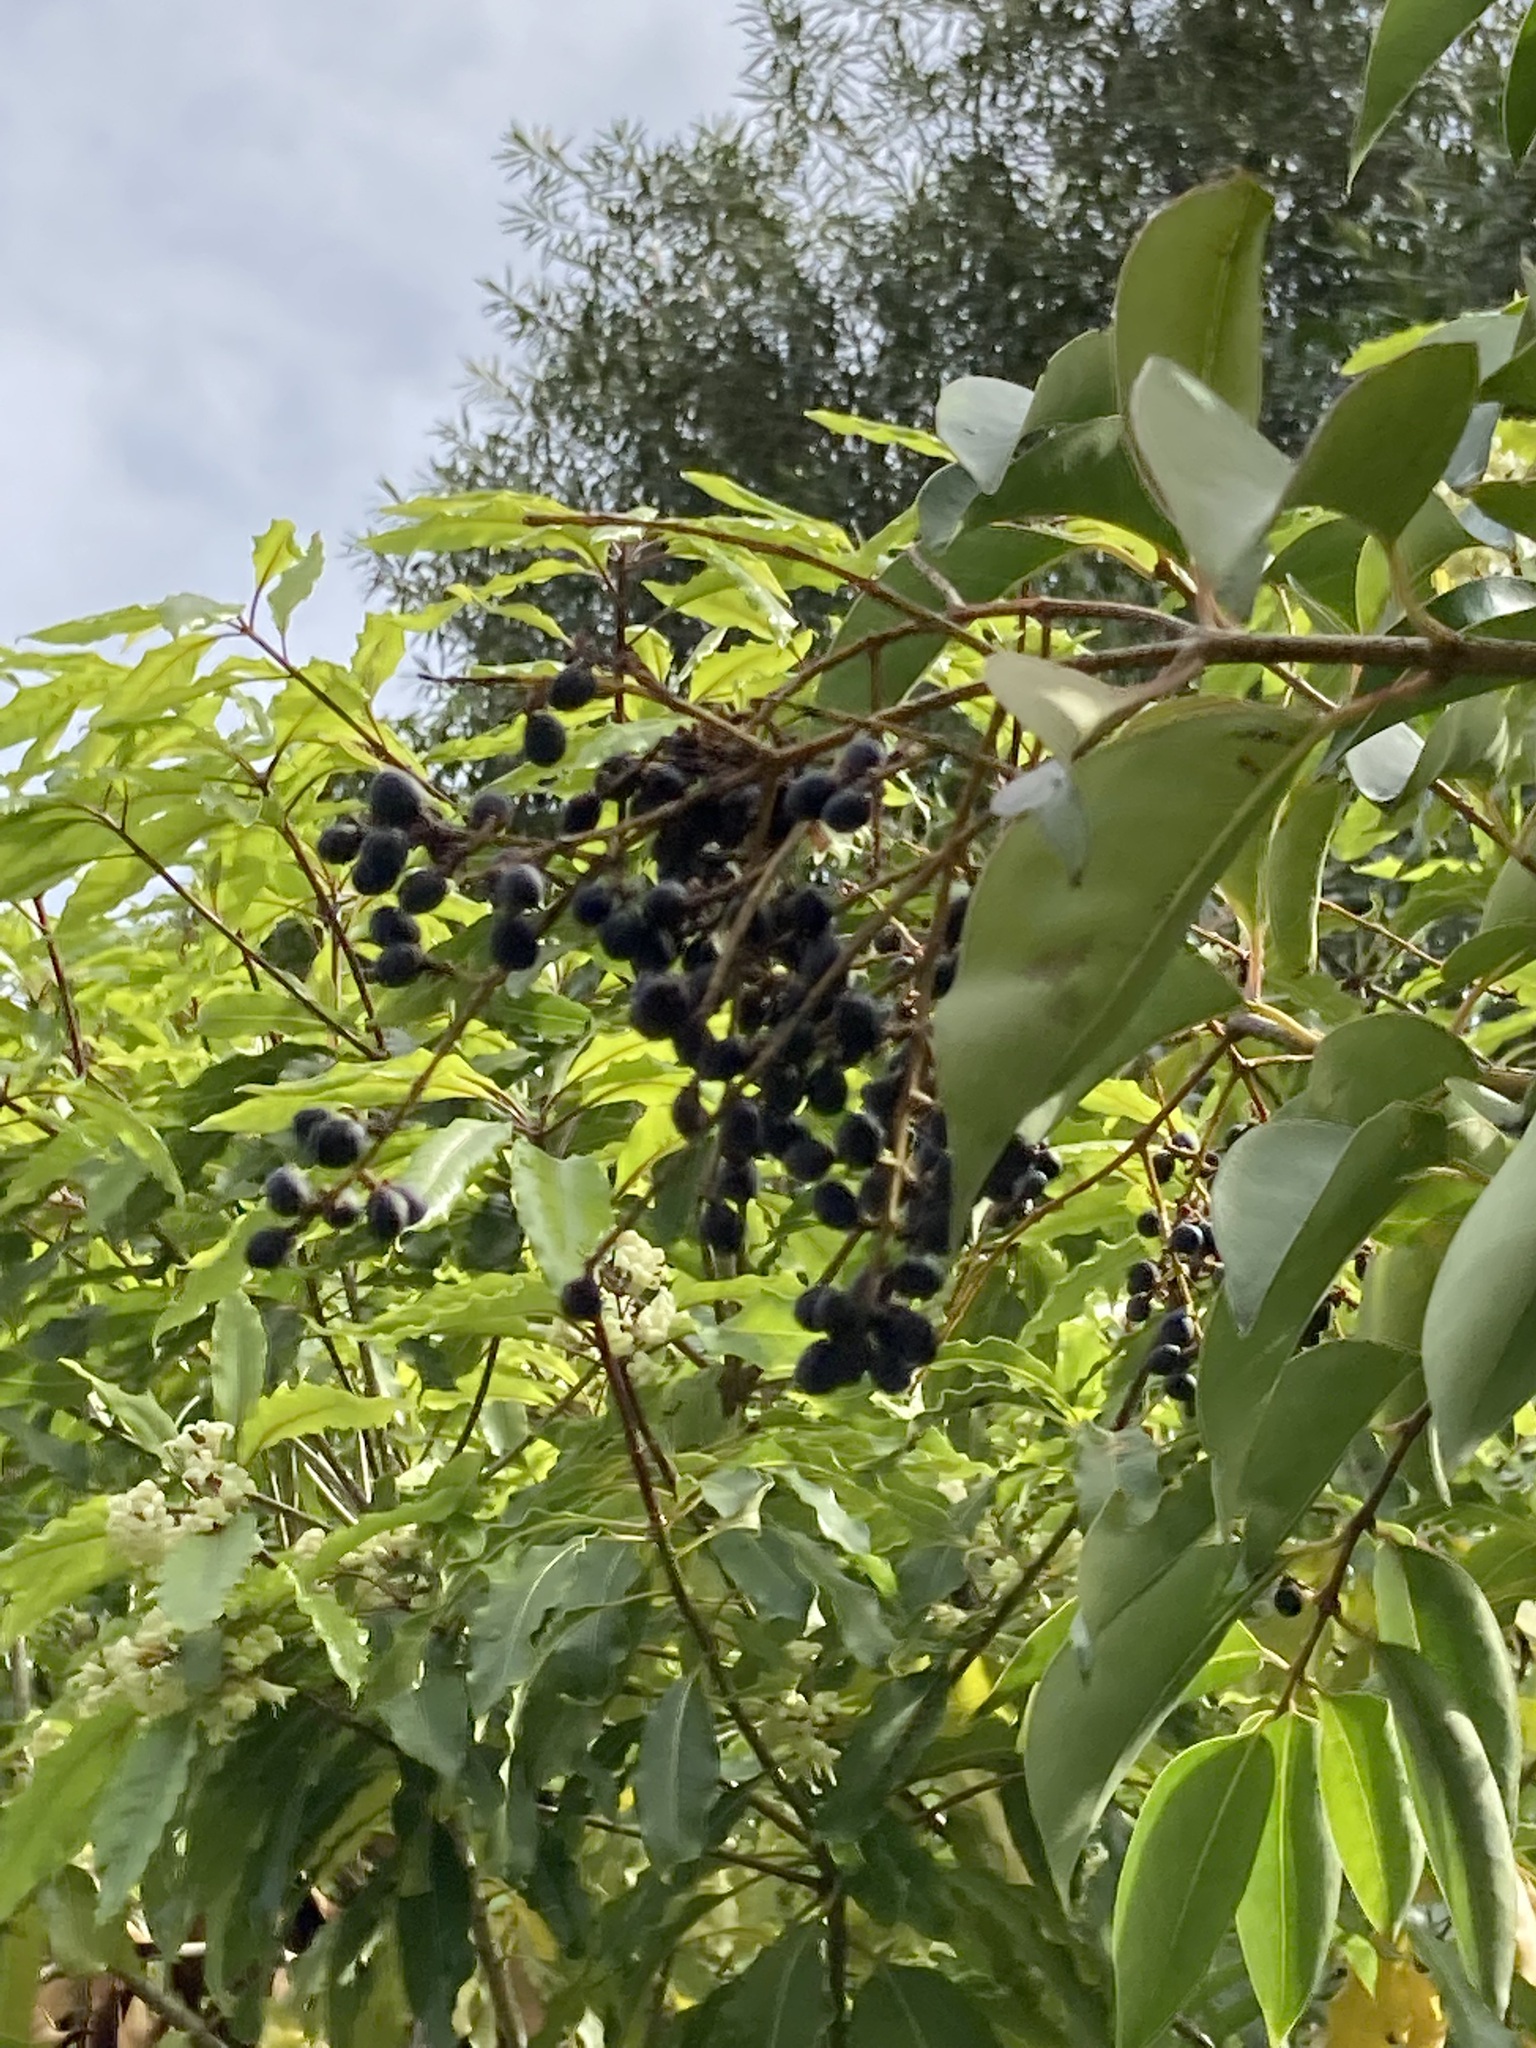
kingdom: Plantae
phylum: Tracheophyta
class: Magnoliopsida
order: Lamiales
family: Oleaceae
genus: Ligustrum
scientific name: Ligustrum lucidum
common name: Glossy privet
